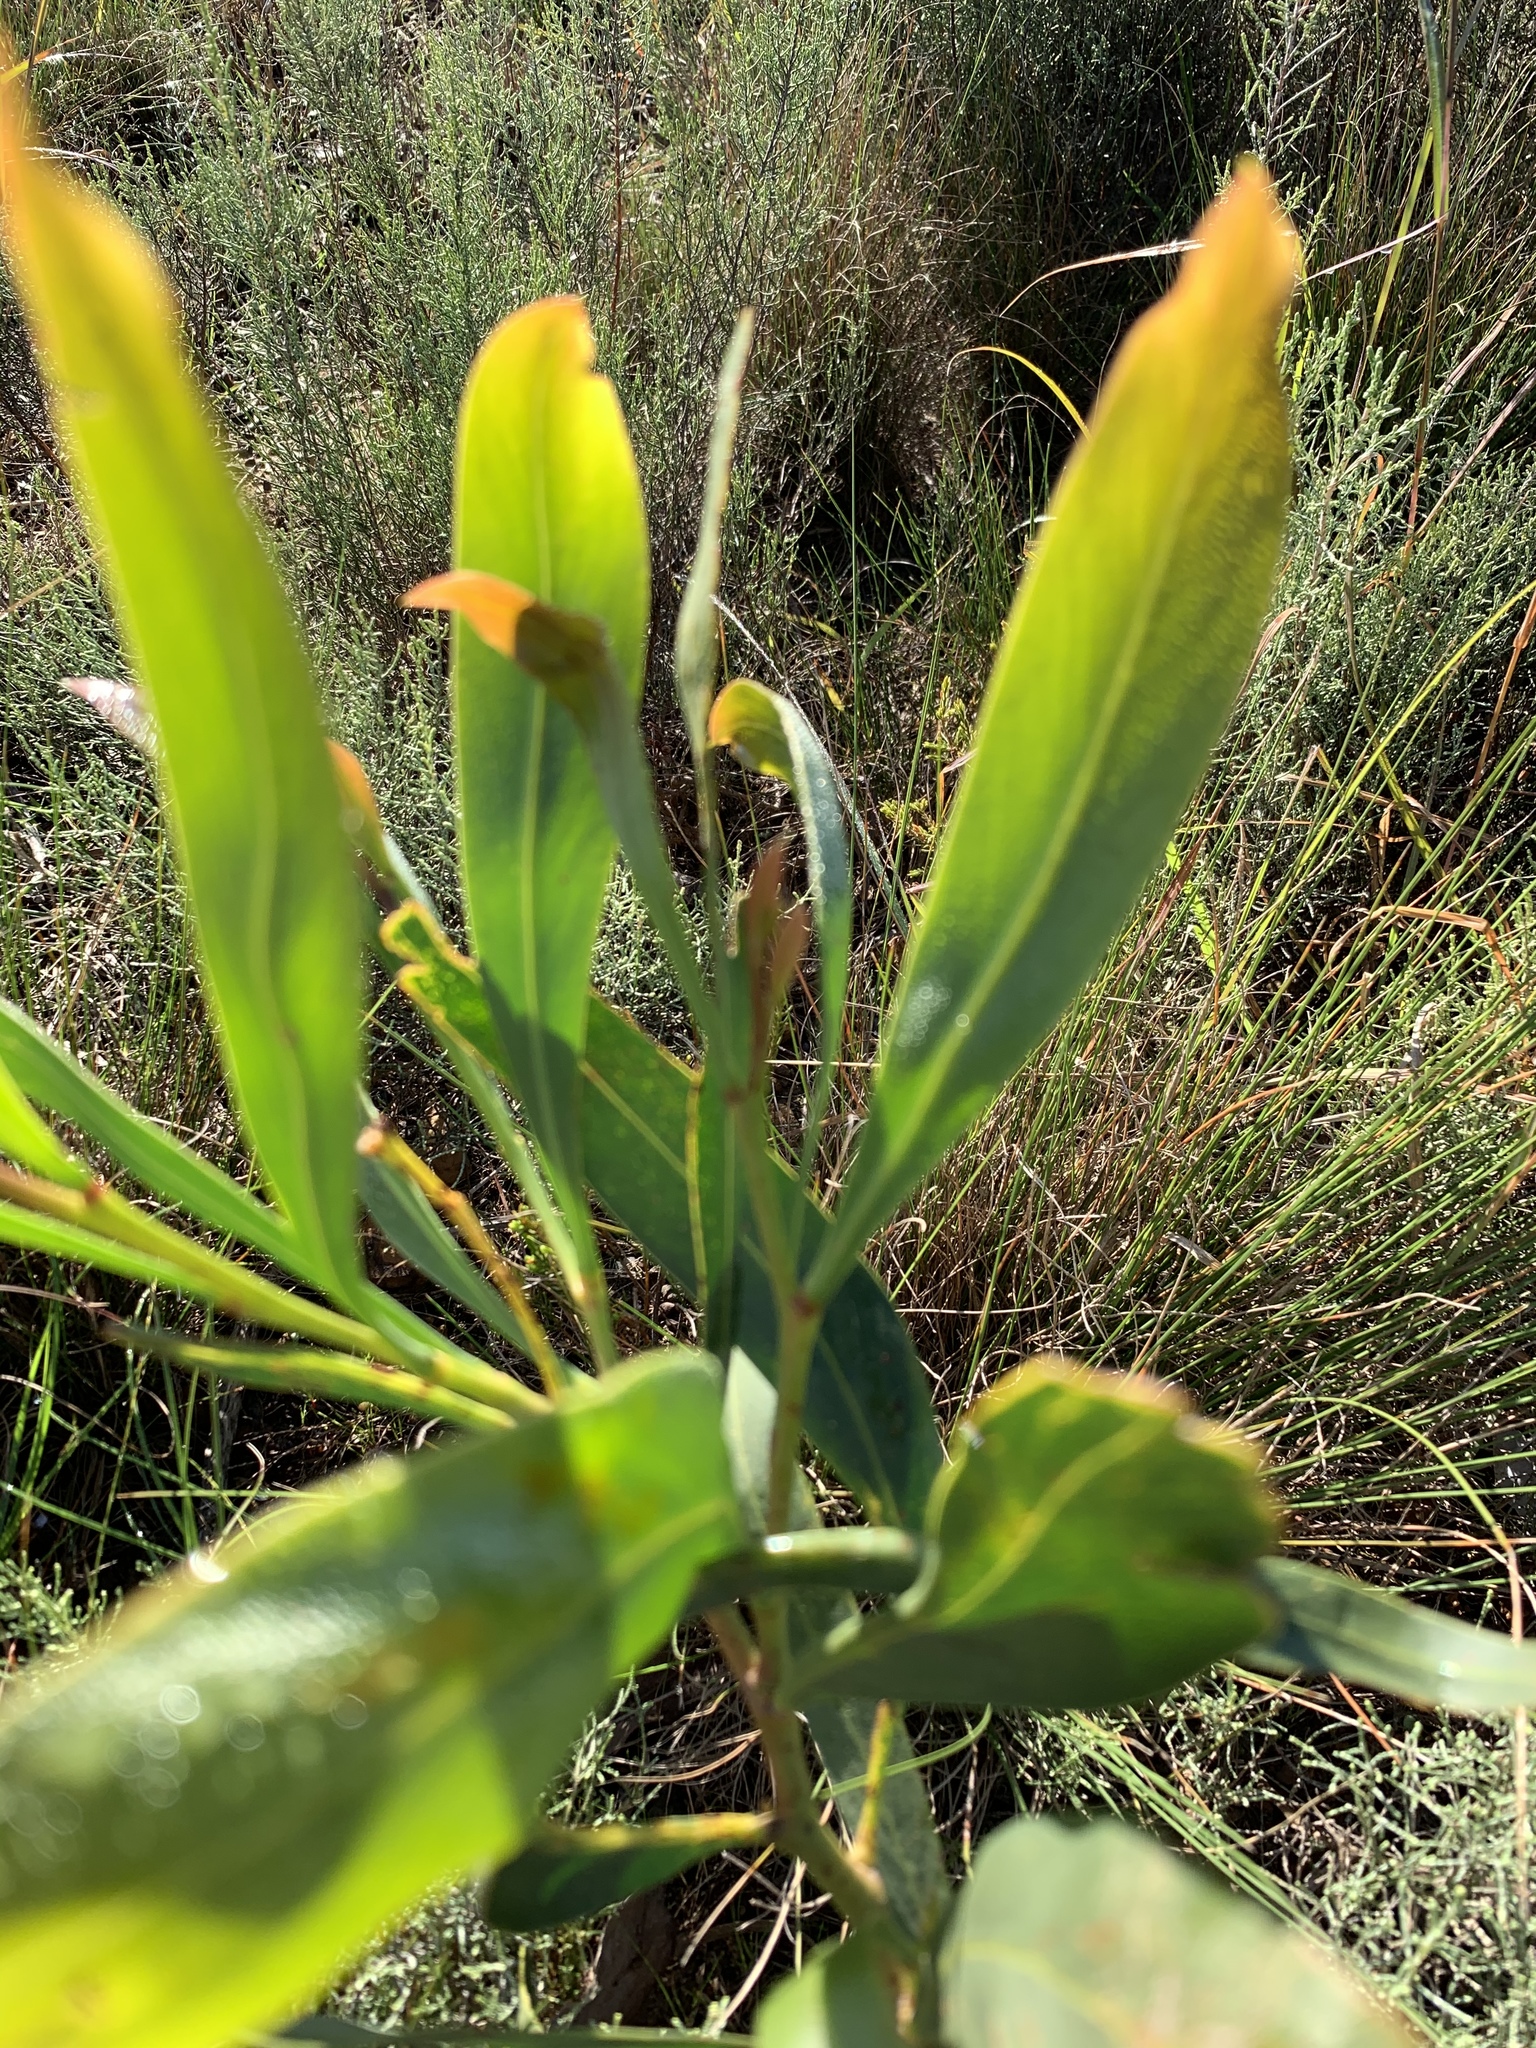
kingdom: Plantae
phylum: Tracheophyta
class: Magnoliopsida
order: Fabales
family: Fabaceae
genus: Acacia
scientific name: Acacia saligna
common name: Orange wattle
